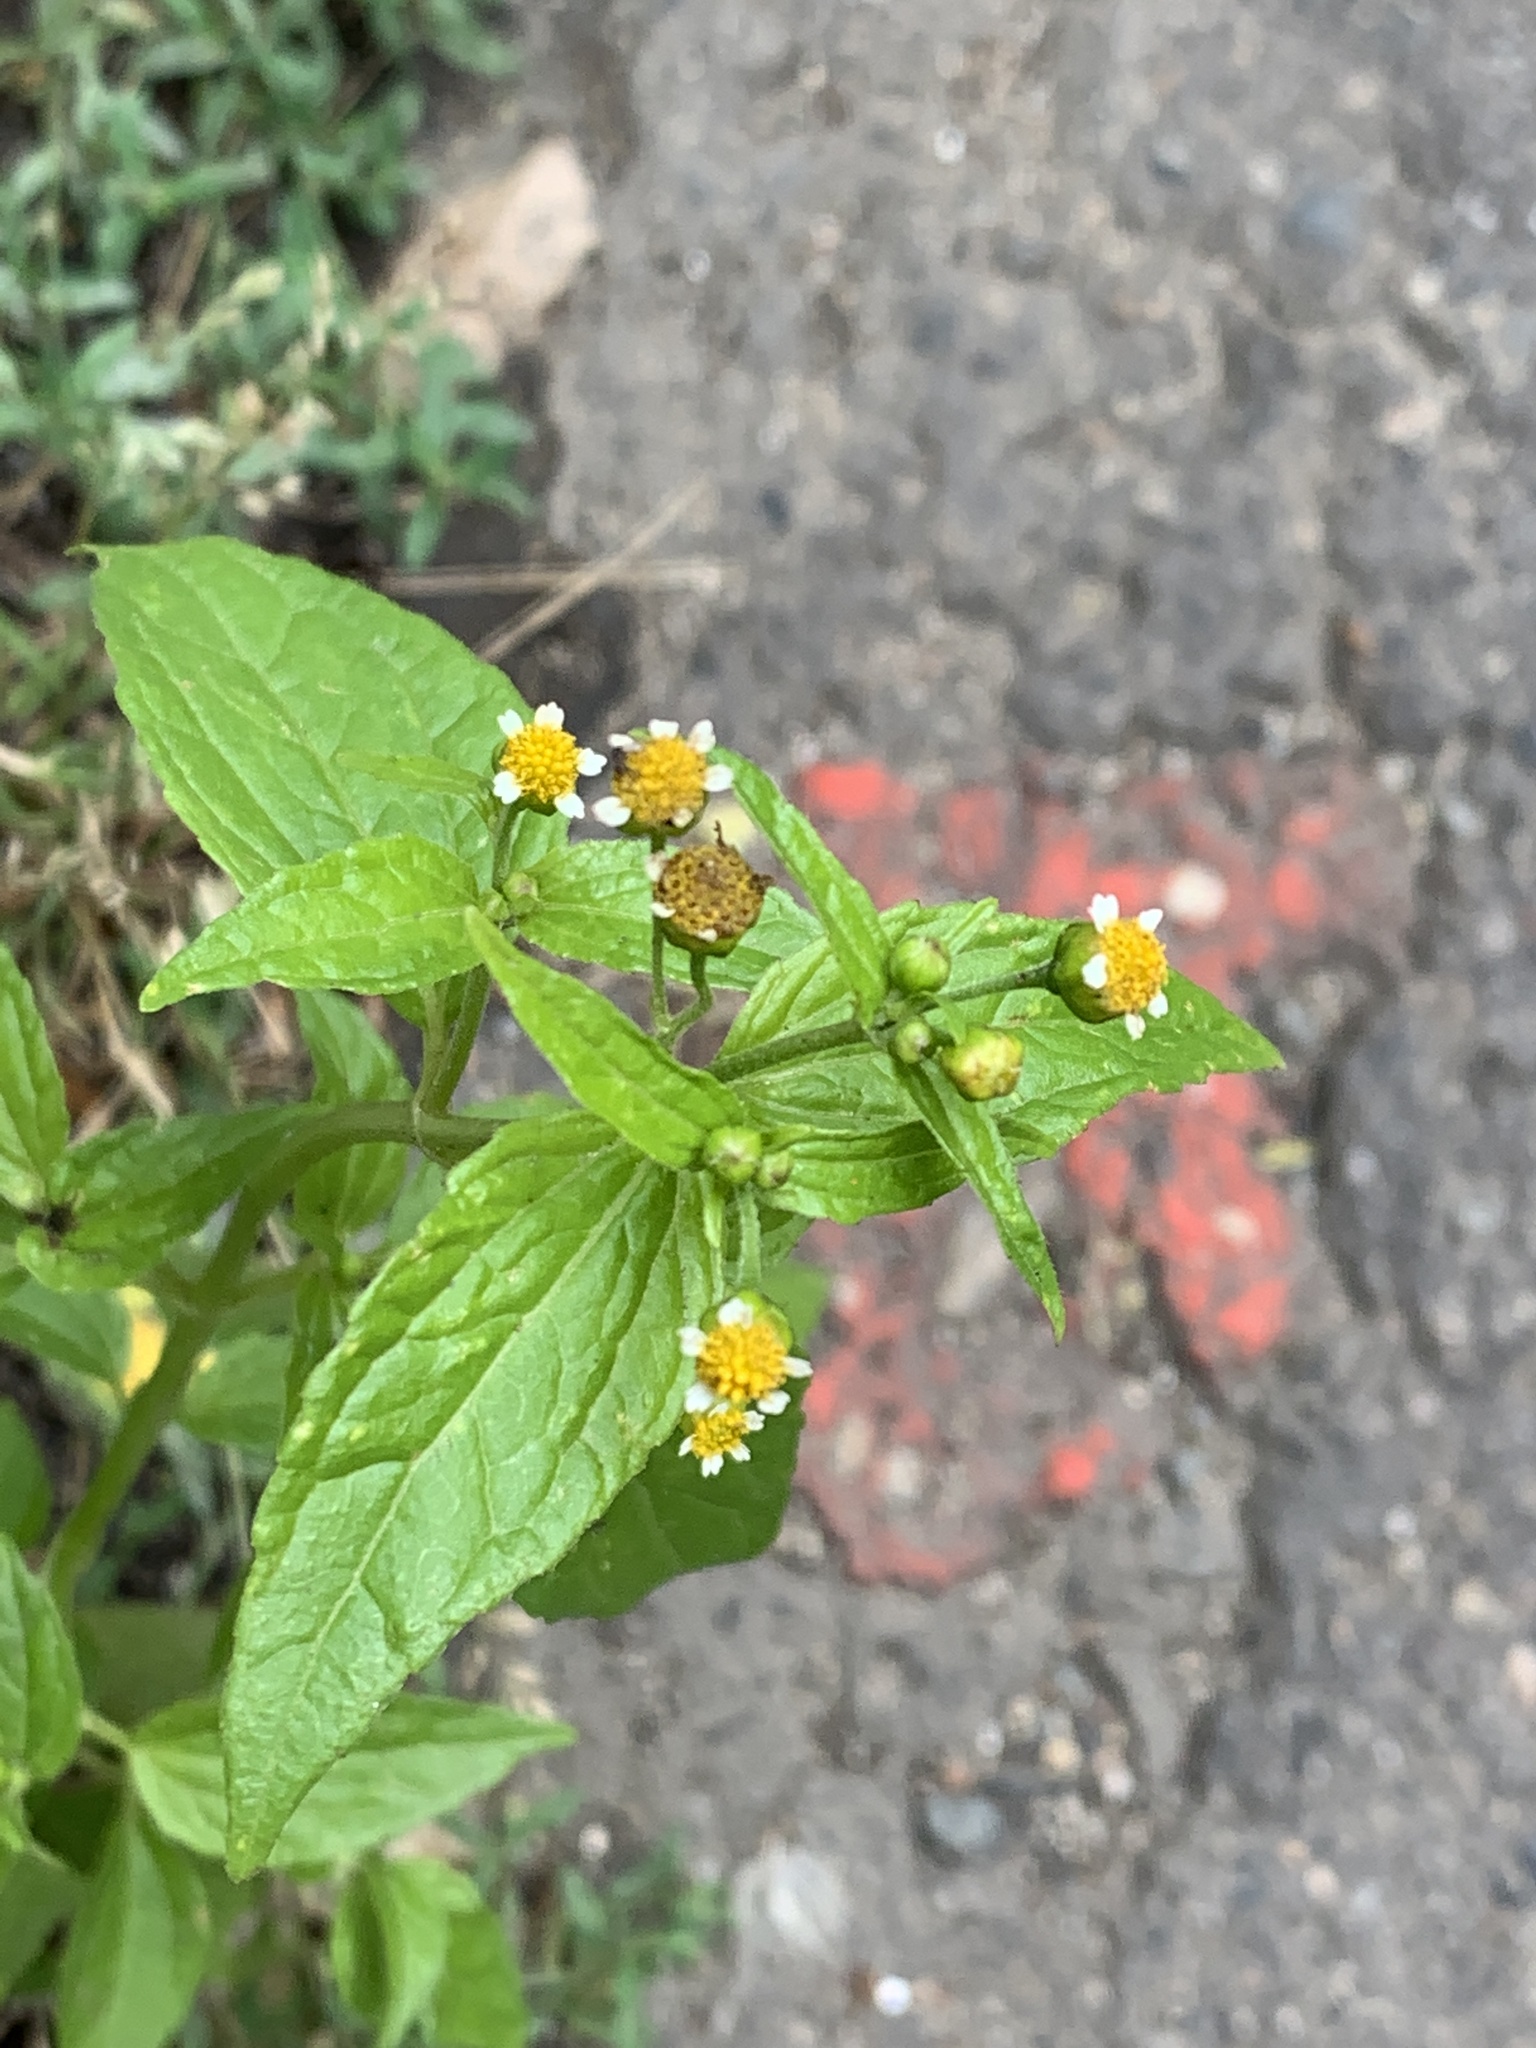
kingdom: Plantae
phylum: Tracheophyta
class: Magnoliopsida
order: Asterales
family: Asteraceae
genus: Galinsoga
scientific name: Galinsoga parviflora
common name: Gallant soldier
